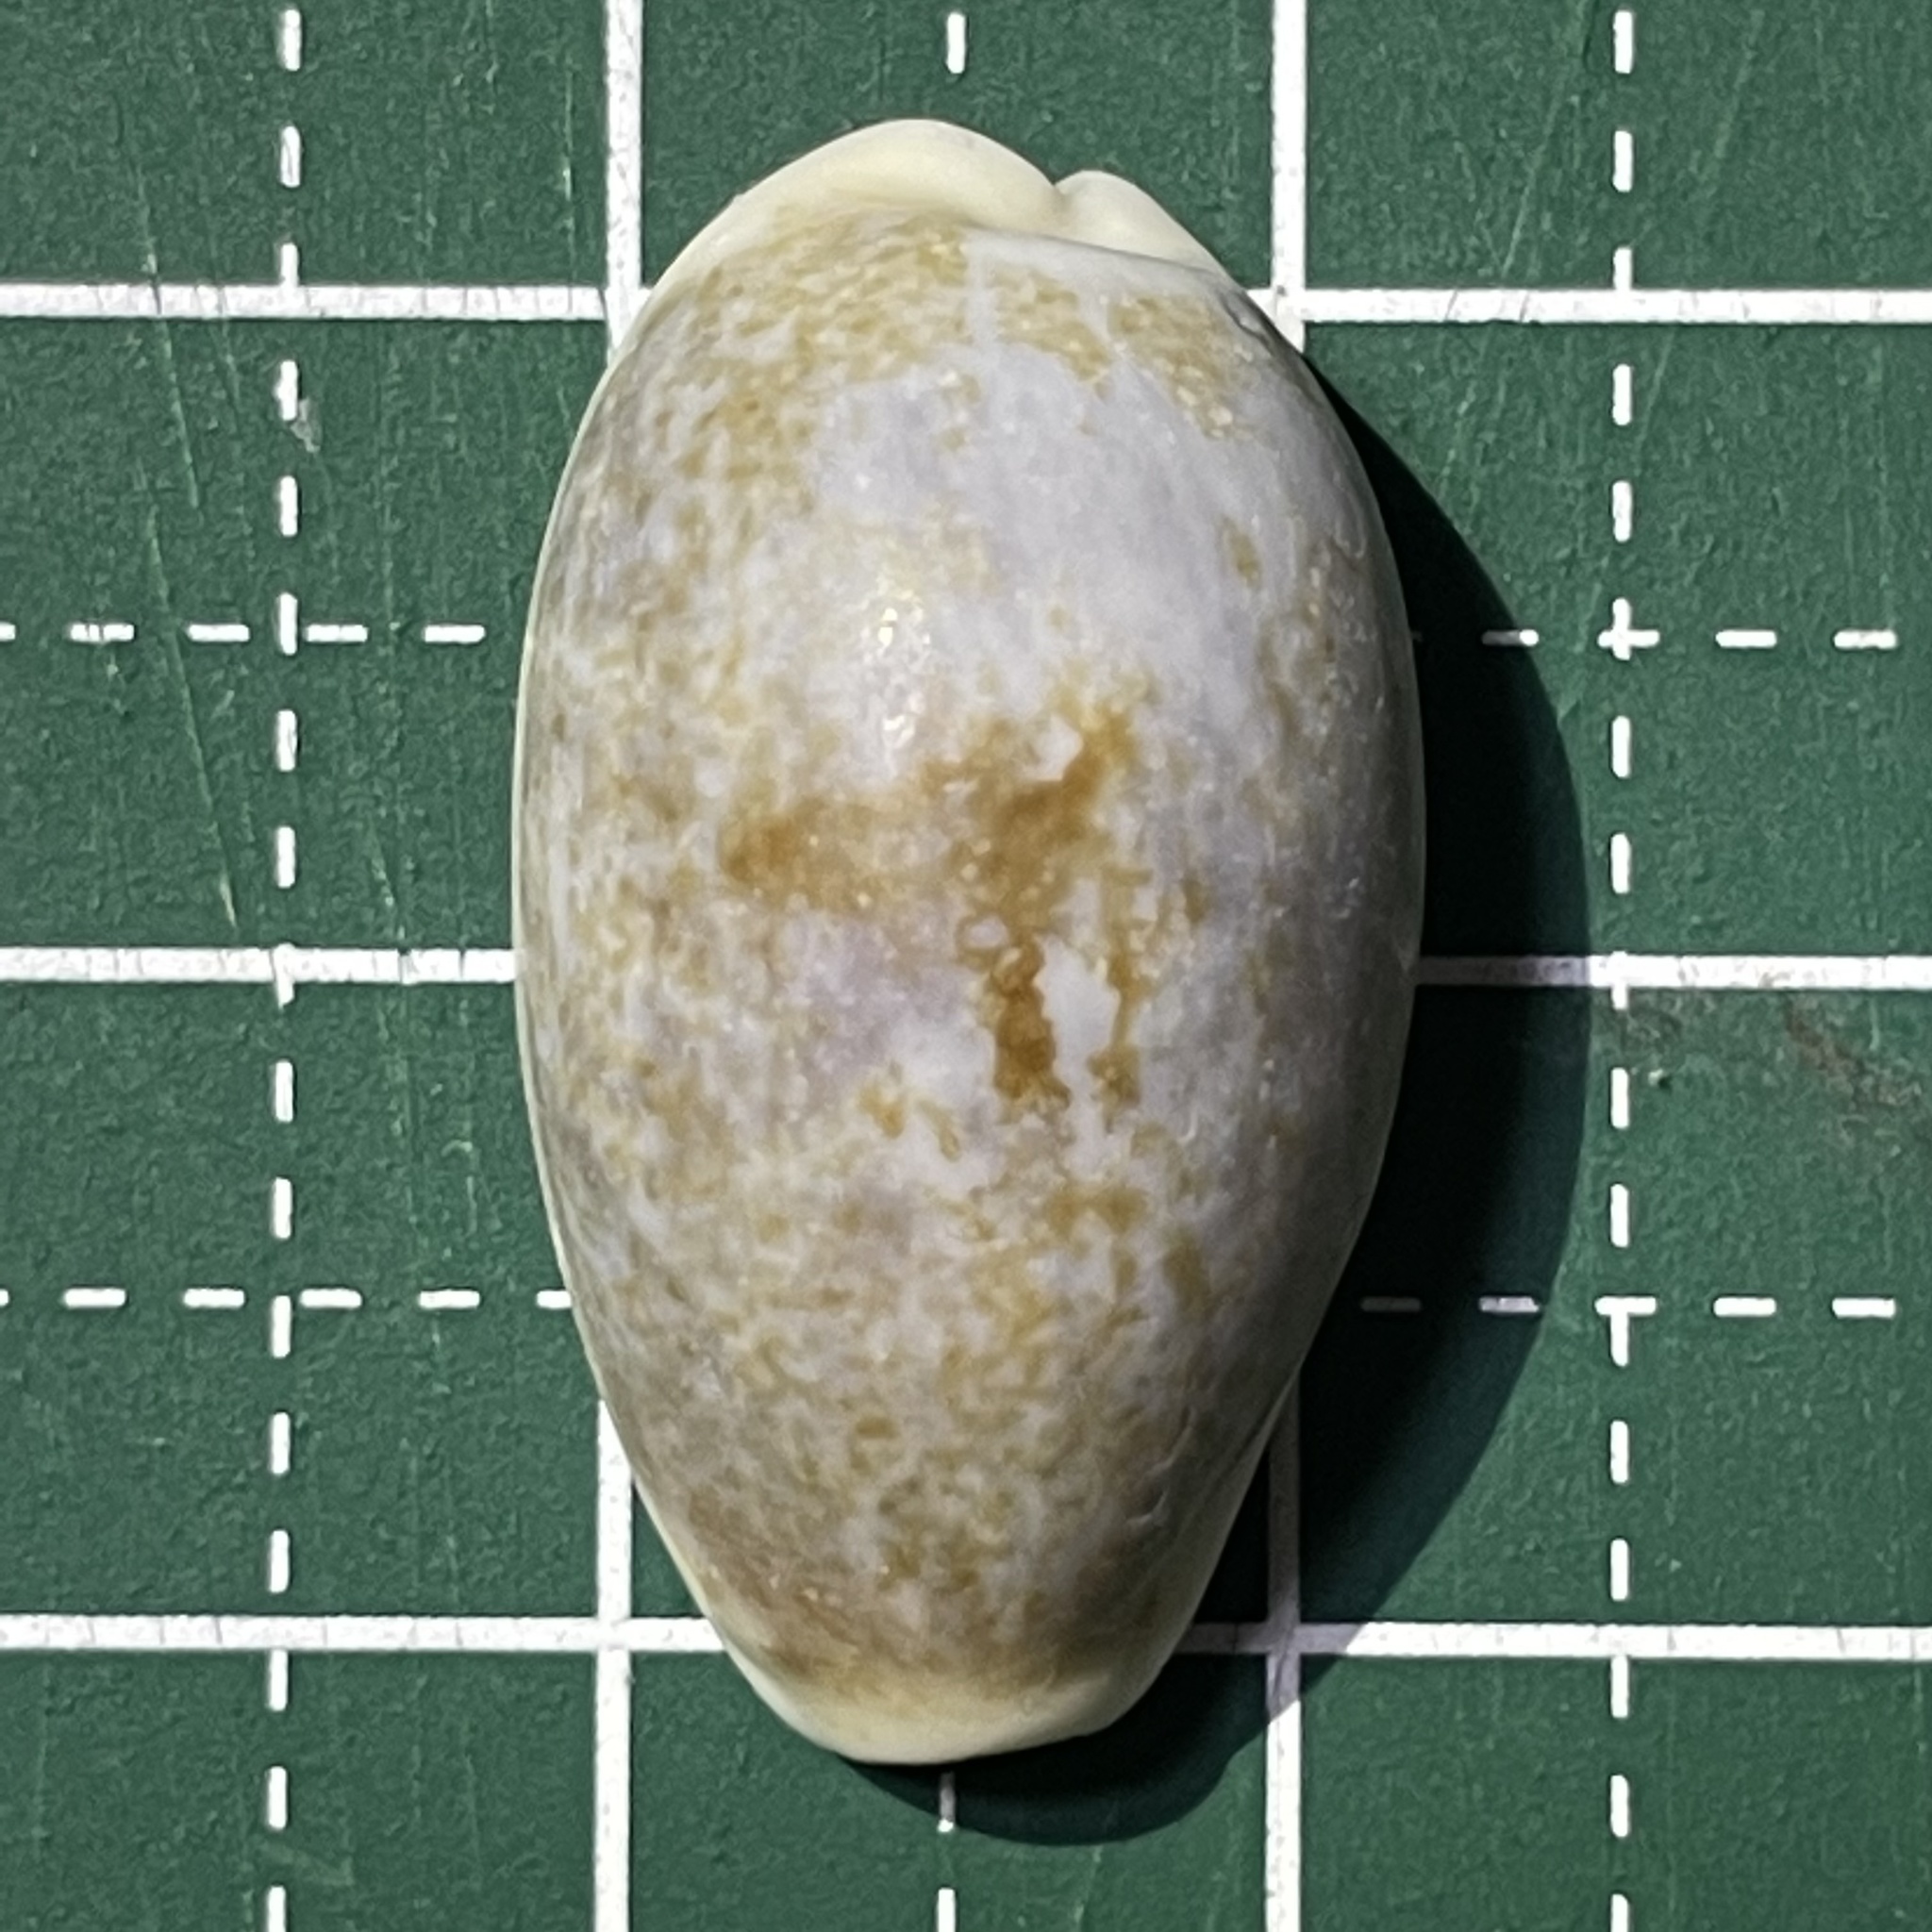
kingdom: Animalia
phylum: Mollusca
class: Gastropoda
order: Littorinimorpha
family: Cypraeidae
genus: Erronea
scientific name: Erronea errones
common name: Mistaken cowrie
